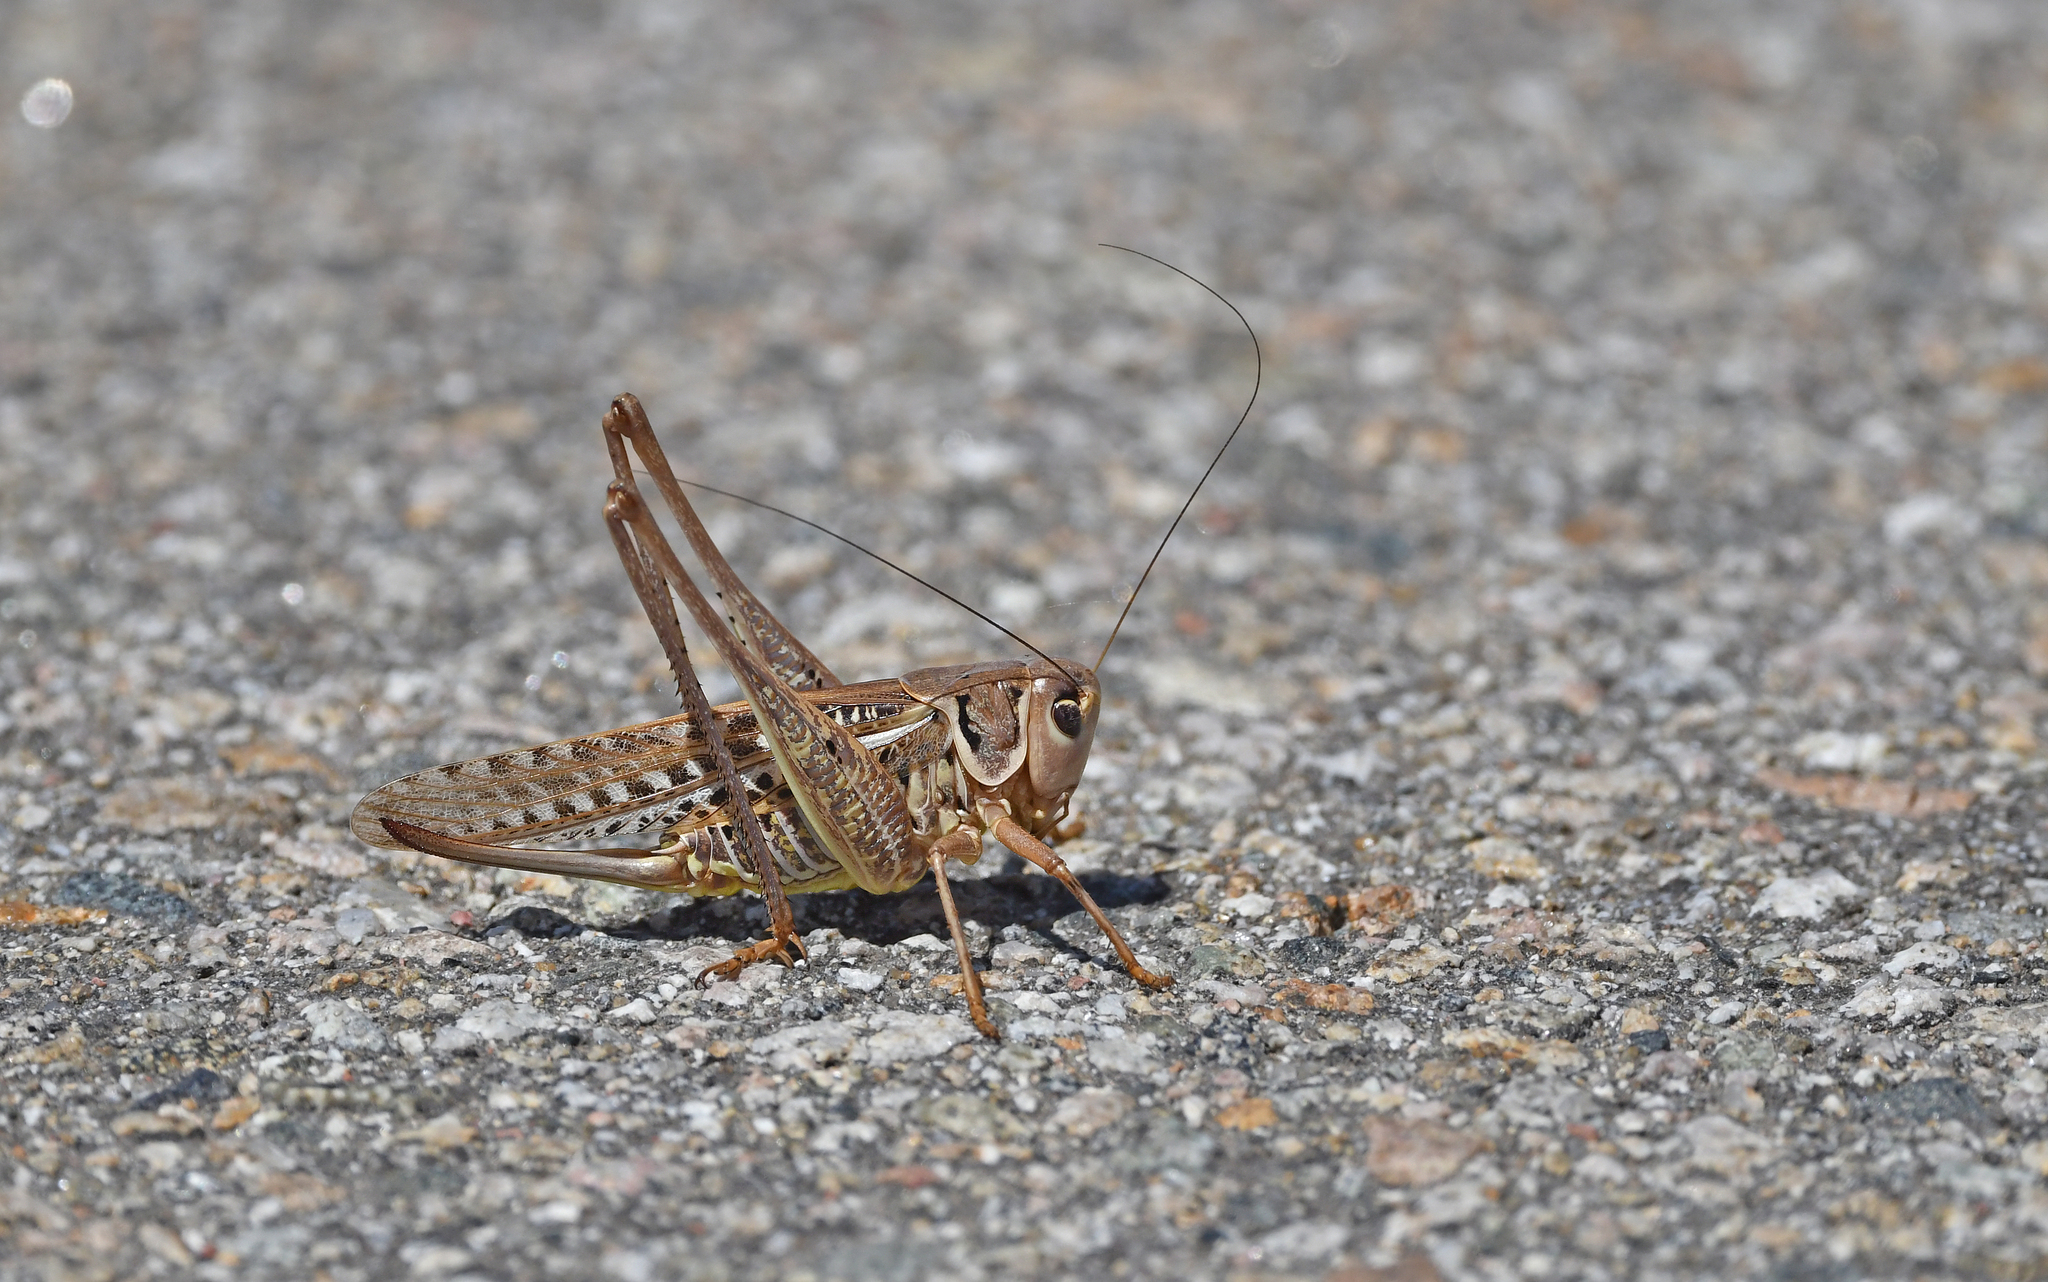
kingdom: Animalia
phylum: Arthropoda
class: Insecta
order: Orthoptera
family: Tettigoniidae
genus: Decticus
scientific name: Decticus albifrons
